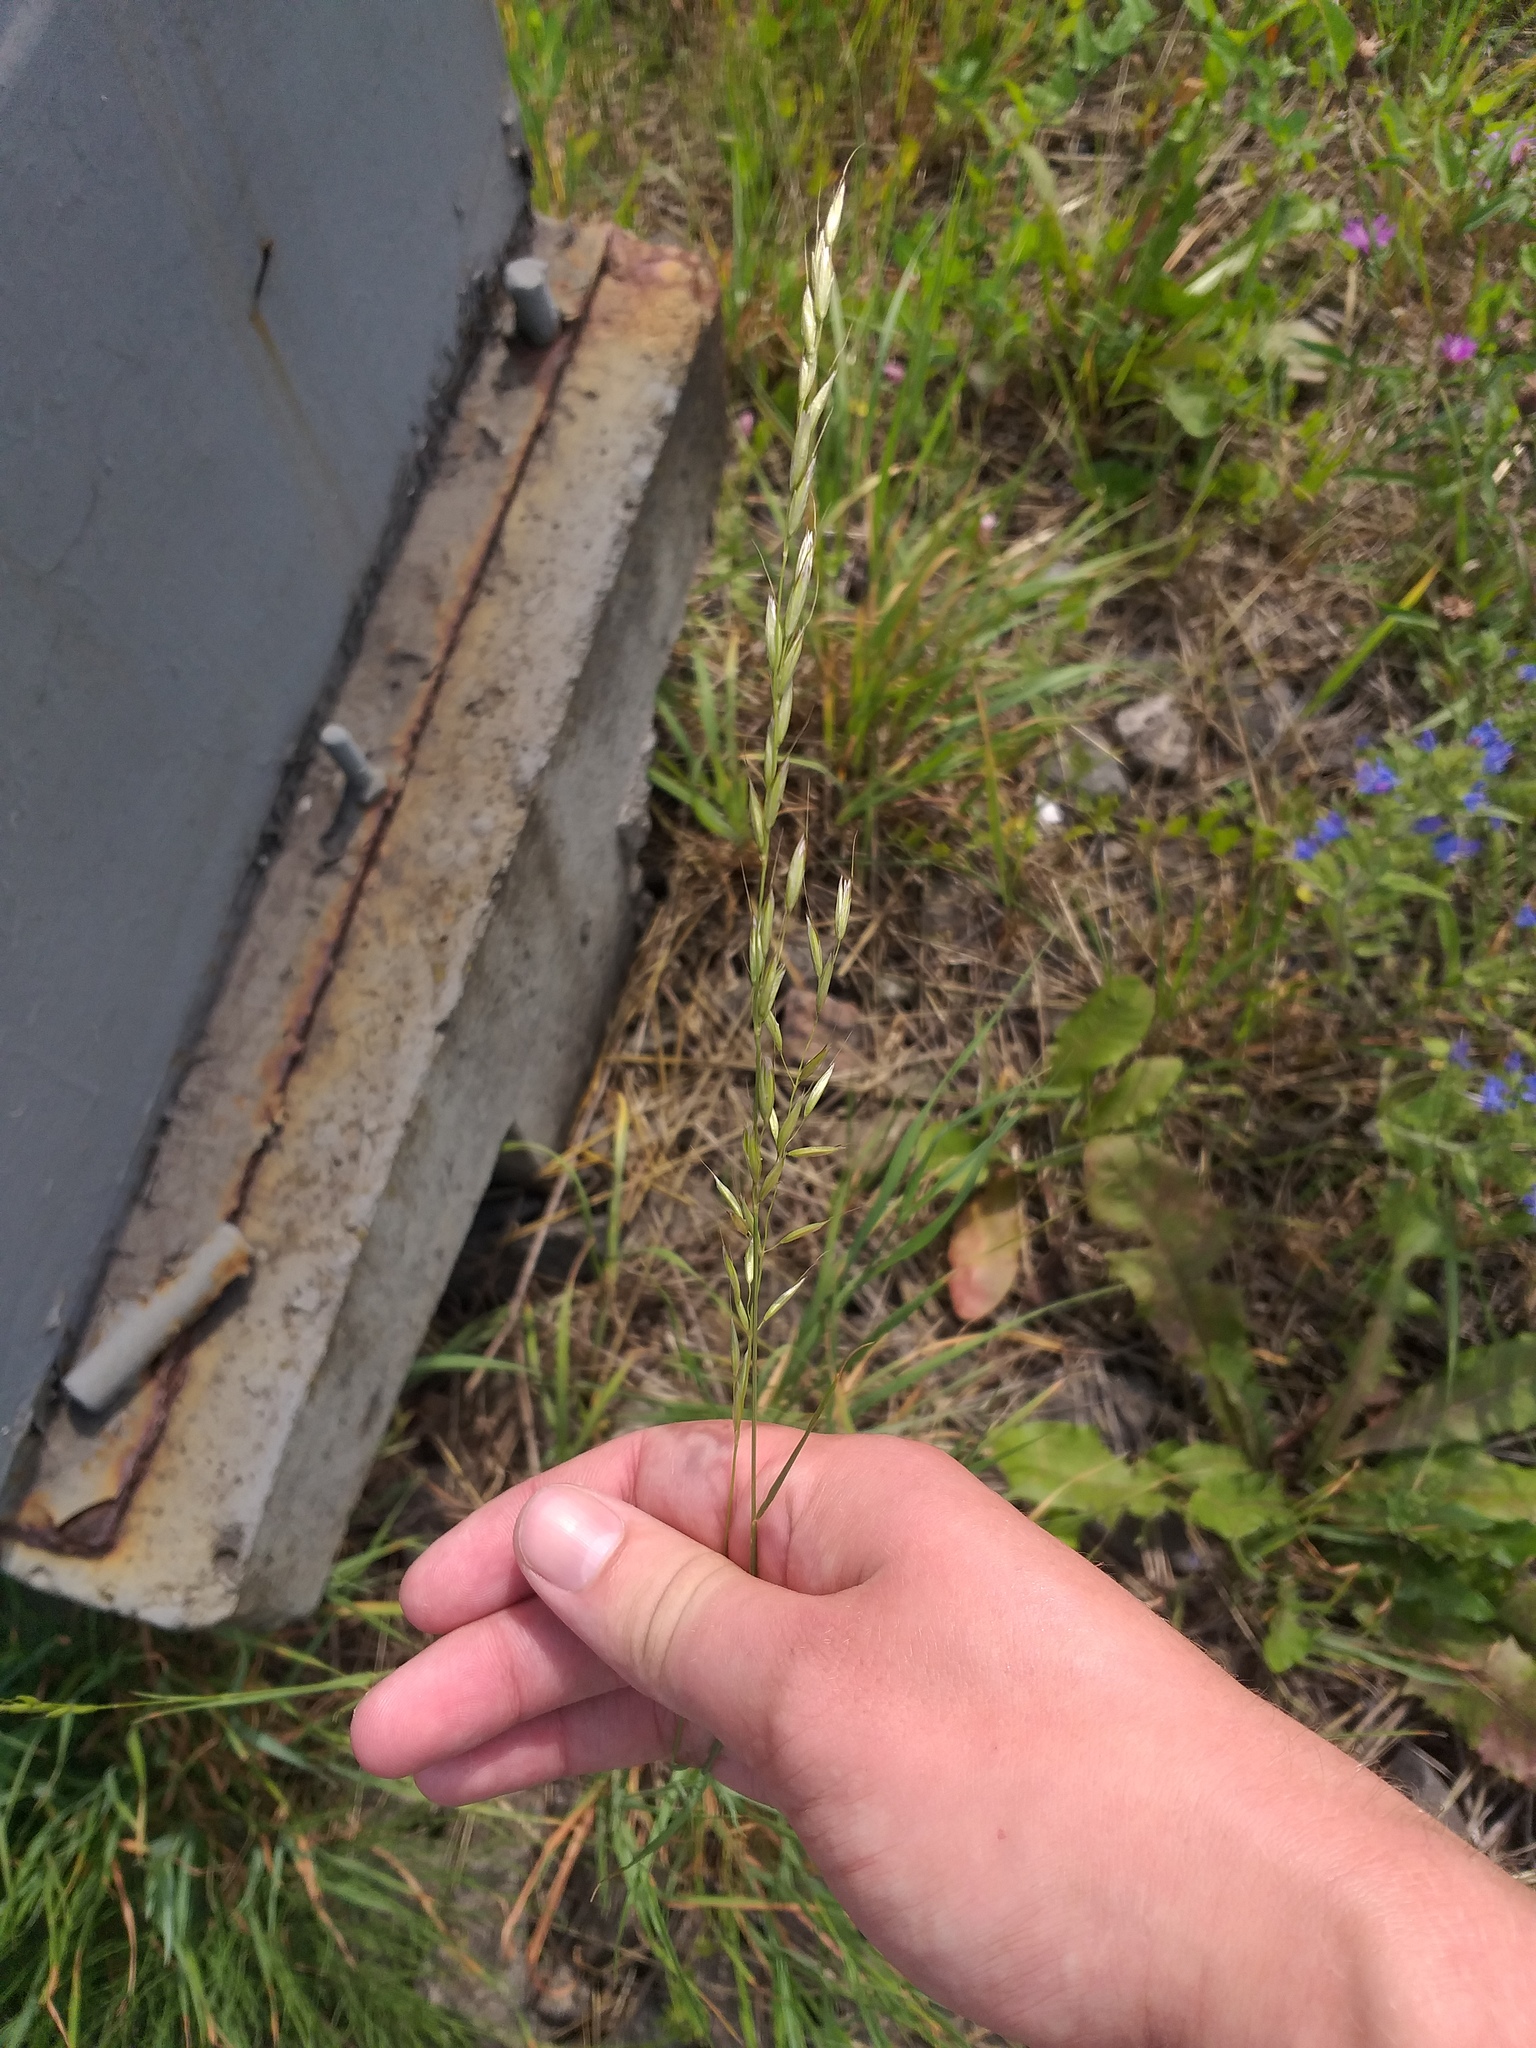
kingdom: Plantae
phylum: Tracheophyta
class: Liliopsida
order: Poales
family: Poaceae
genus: Arrhenatherum
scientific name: Arrhenatherum elatius
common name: Tall oatgrass
